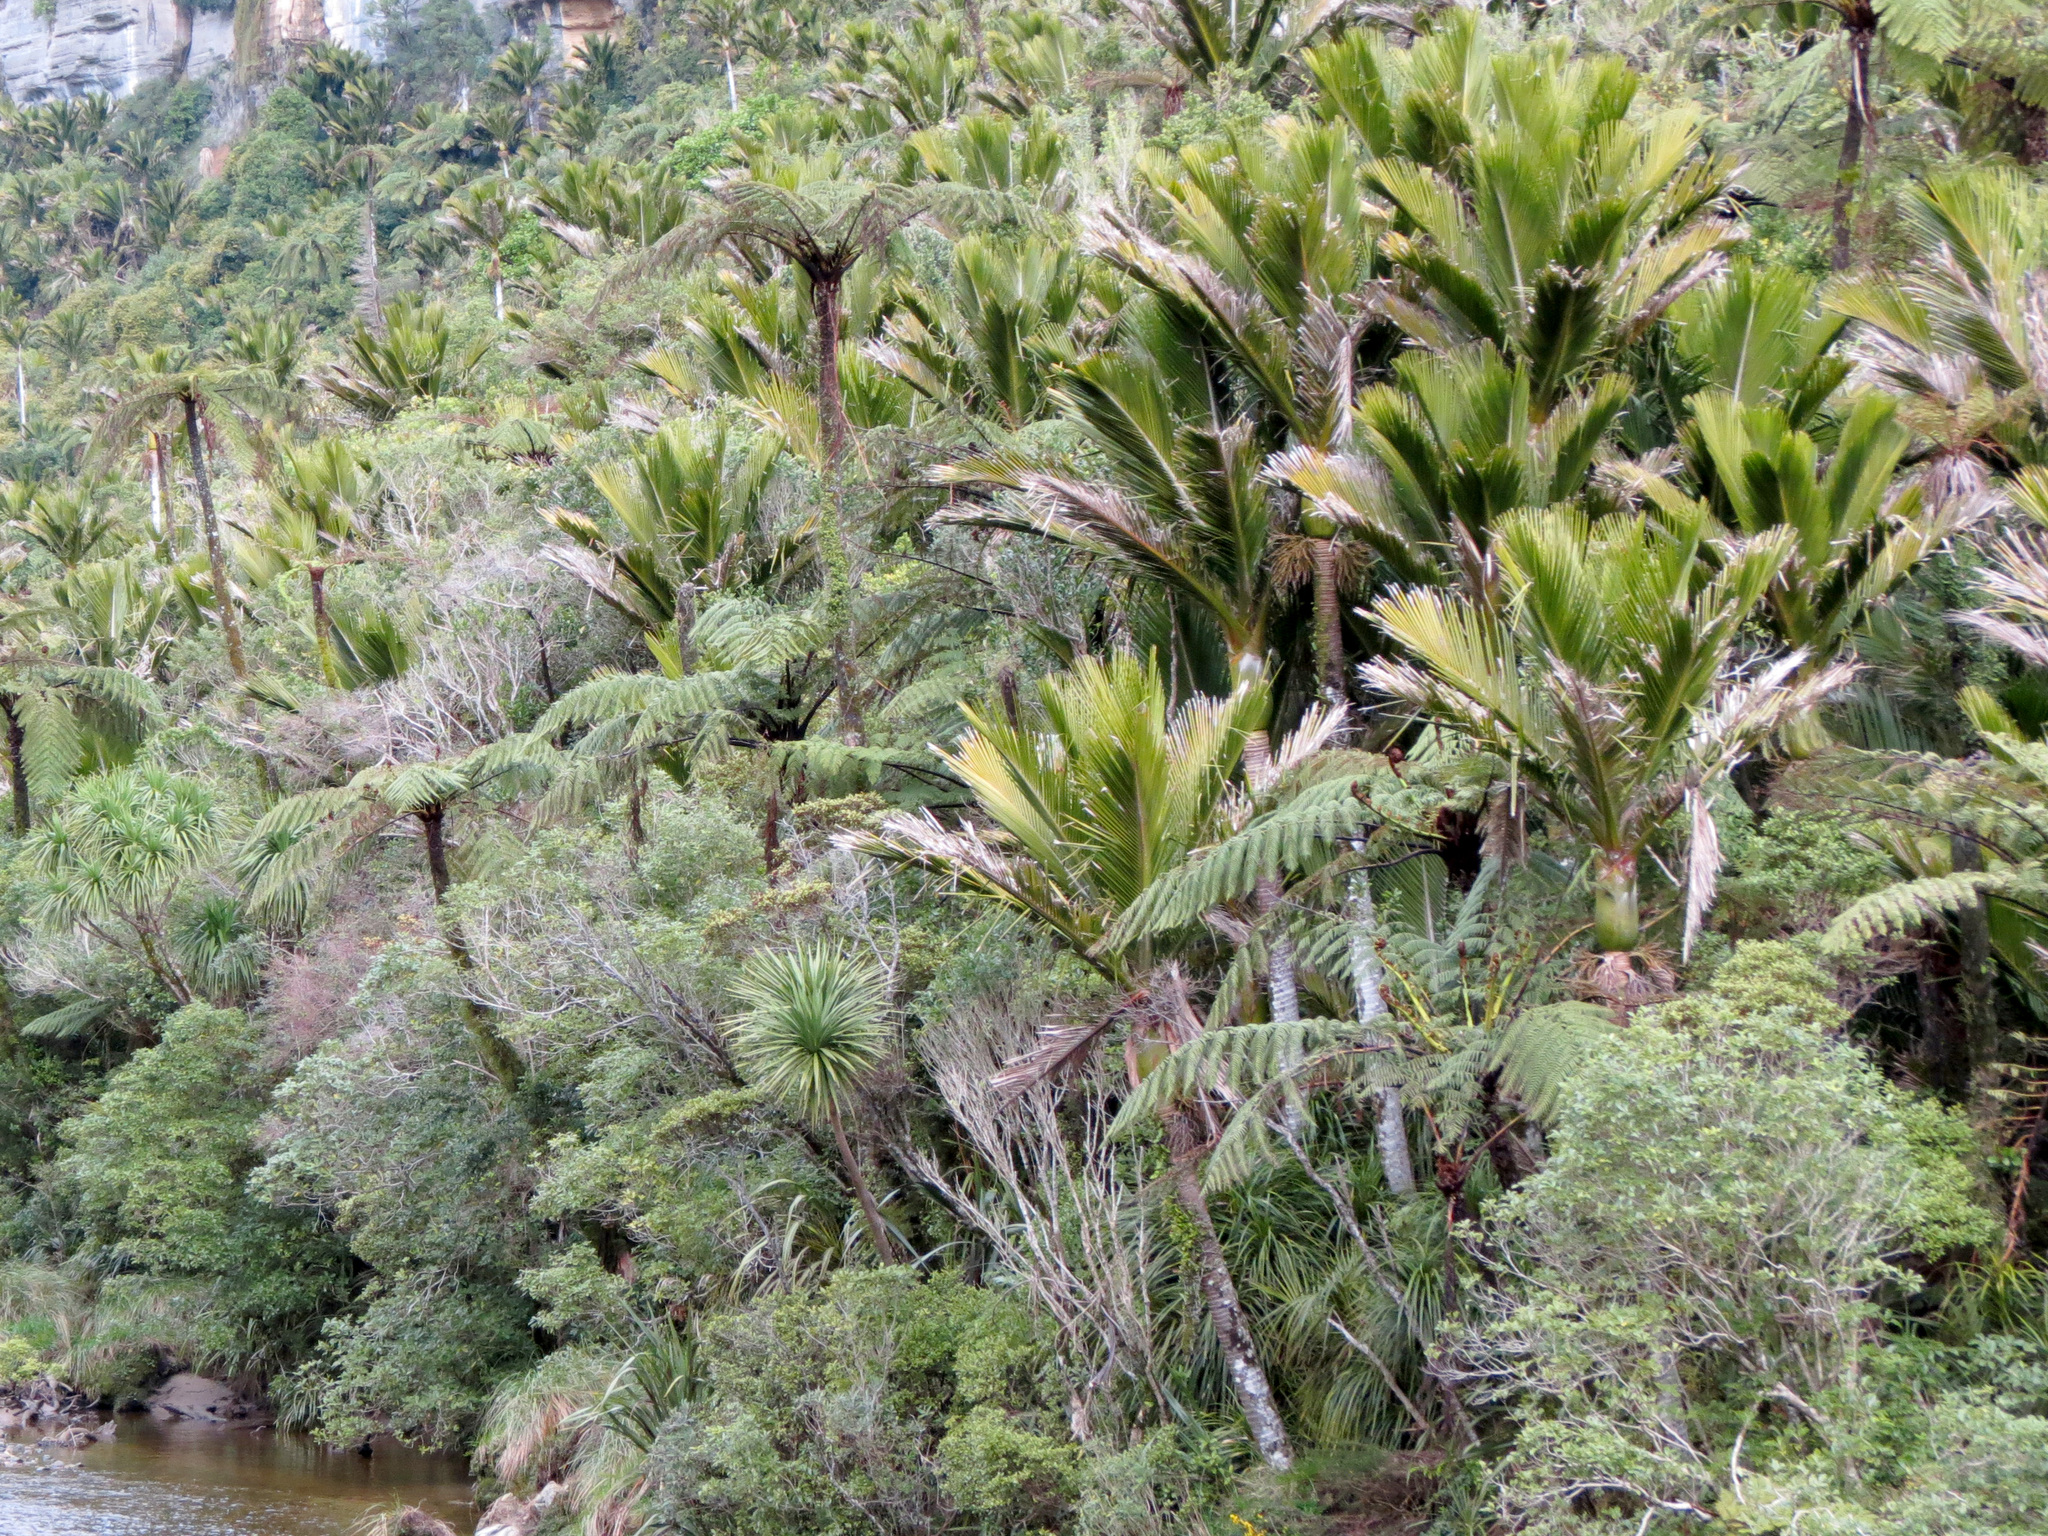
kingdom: Plantae
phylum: Tracheophyta
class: Liliopsida
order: Arecales
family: Arecaceae
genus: Rhopalostylis
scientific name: Rhopalostylis sapida
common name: Feather-duster palm
